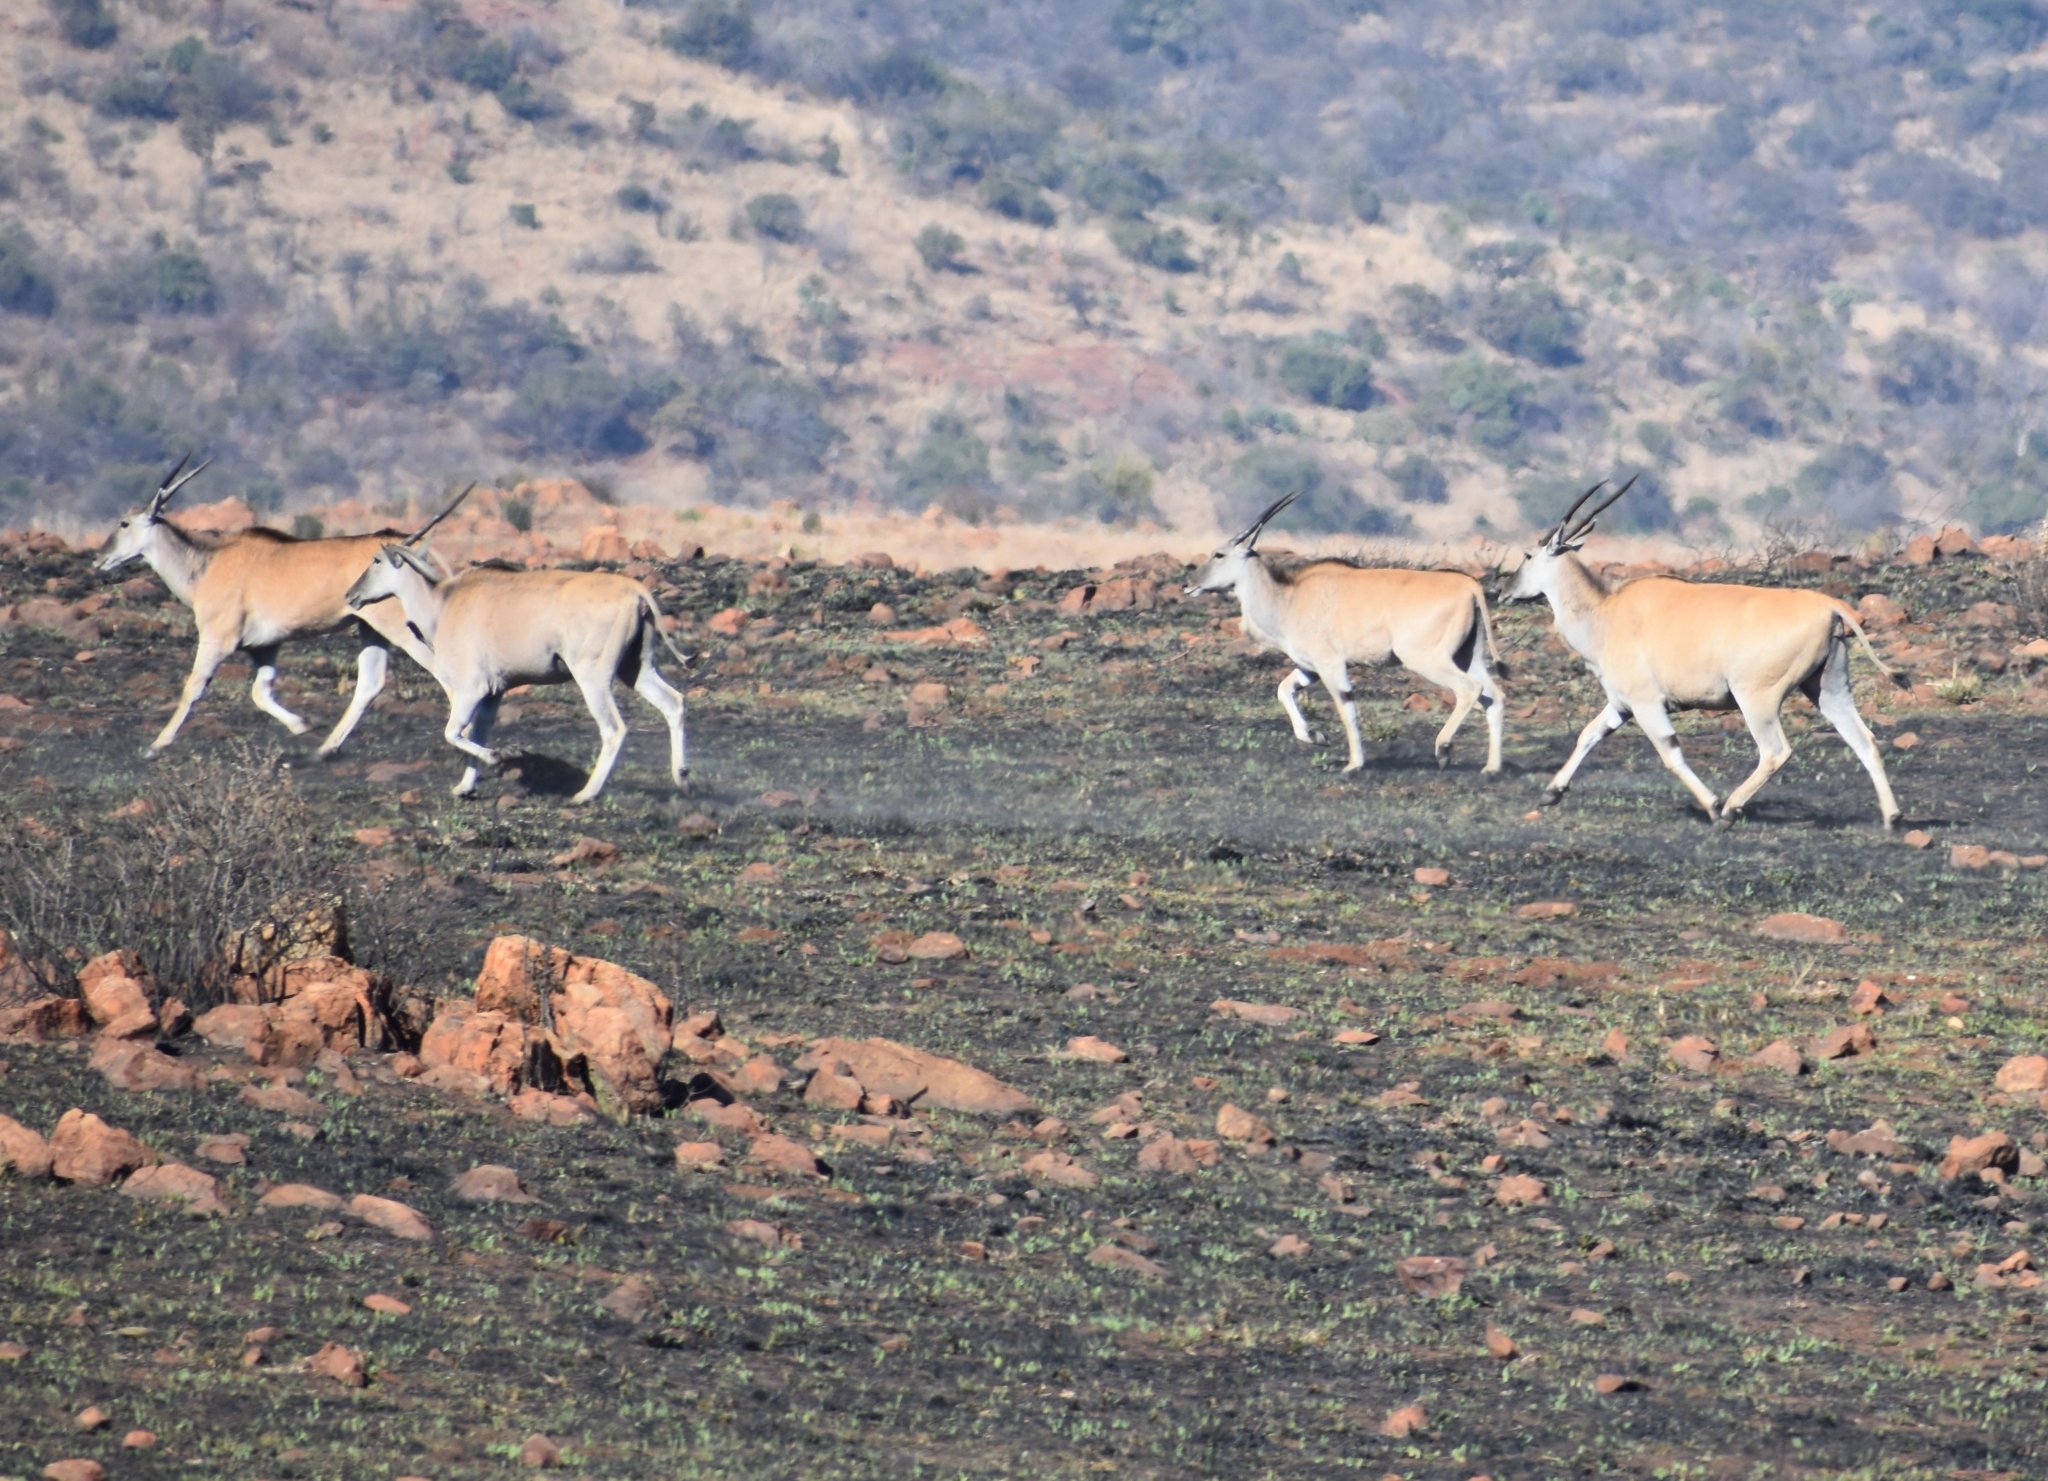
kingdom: Animalia
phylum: Chordata
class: Mammalia
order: Artiodactyla
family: Bovidae
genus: Taurotragus
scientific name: Taurotragus oryx
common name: Common eland
